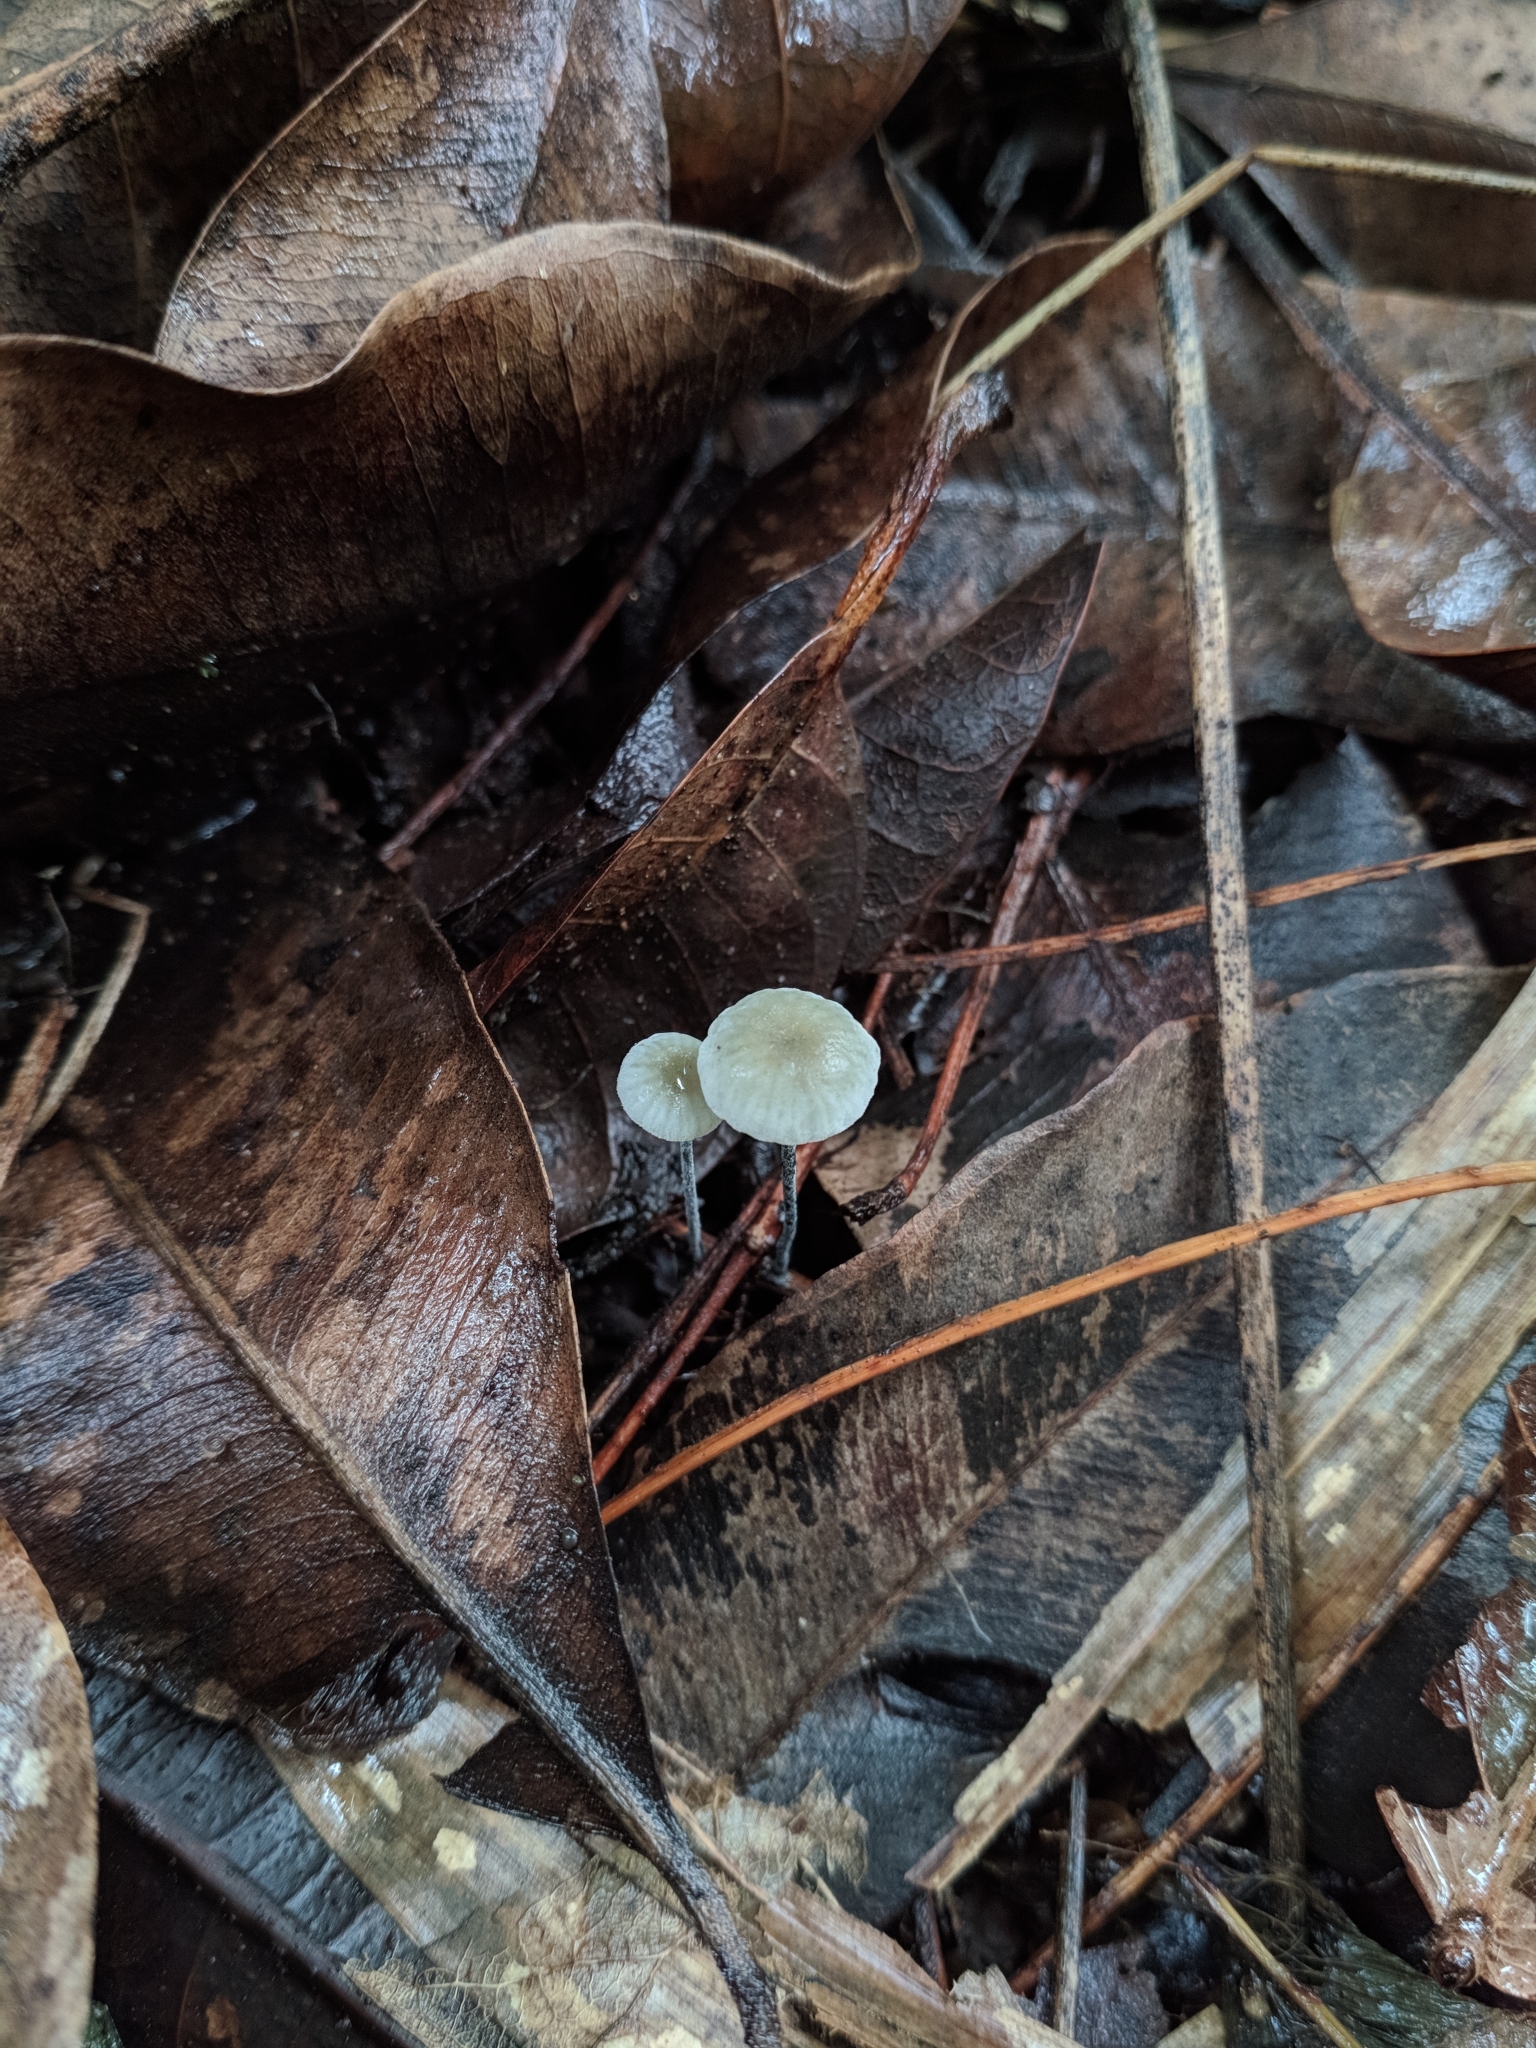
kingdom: Fungi
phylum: Basidiomycota
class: Agaricomycetes
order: Agaricales
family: Marasmiaceae
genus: Tetrapyrgos
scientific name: Tetrapyrgos nigripes
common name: Black-stalked marasmius
